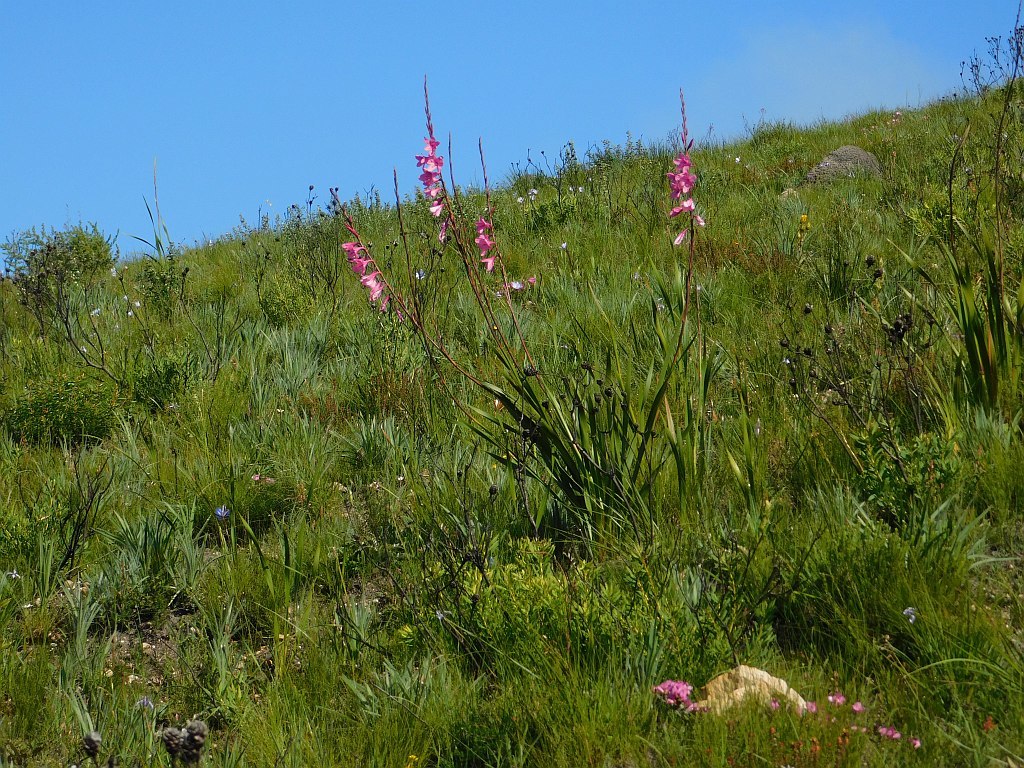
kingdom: Plantae
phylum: Tracheophyta
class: Liliopsida
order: Asparagales
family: Iridaceae
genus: Watsonia
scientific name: Watsonia borbonica
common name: Bugle-lily
